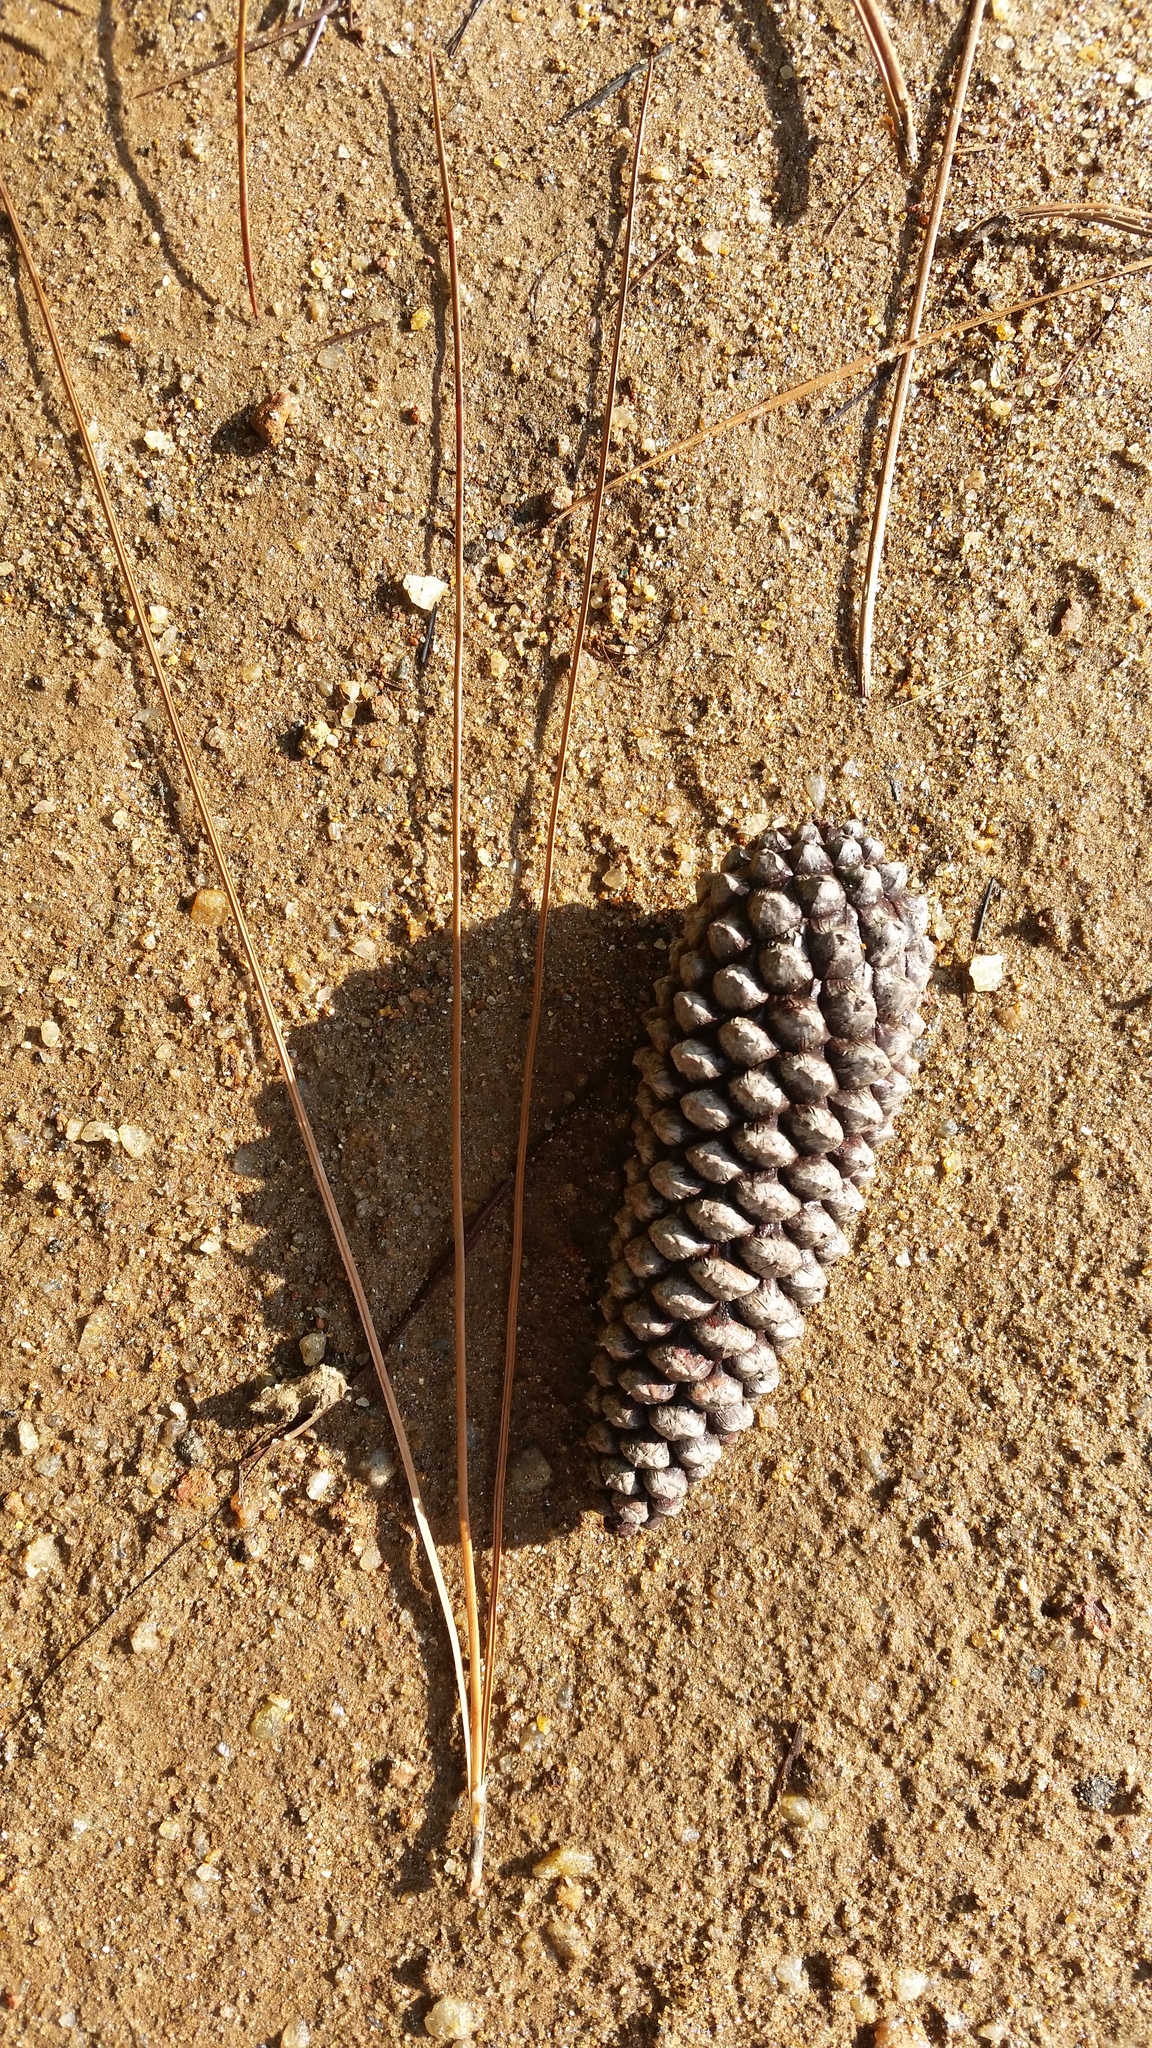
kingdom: Plantae
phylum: Tracheophyta
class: Pinopsida
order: Pinales
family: Pinaceae
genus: Pinus
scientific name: Pinus patula
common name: Mexican weeping pine
